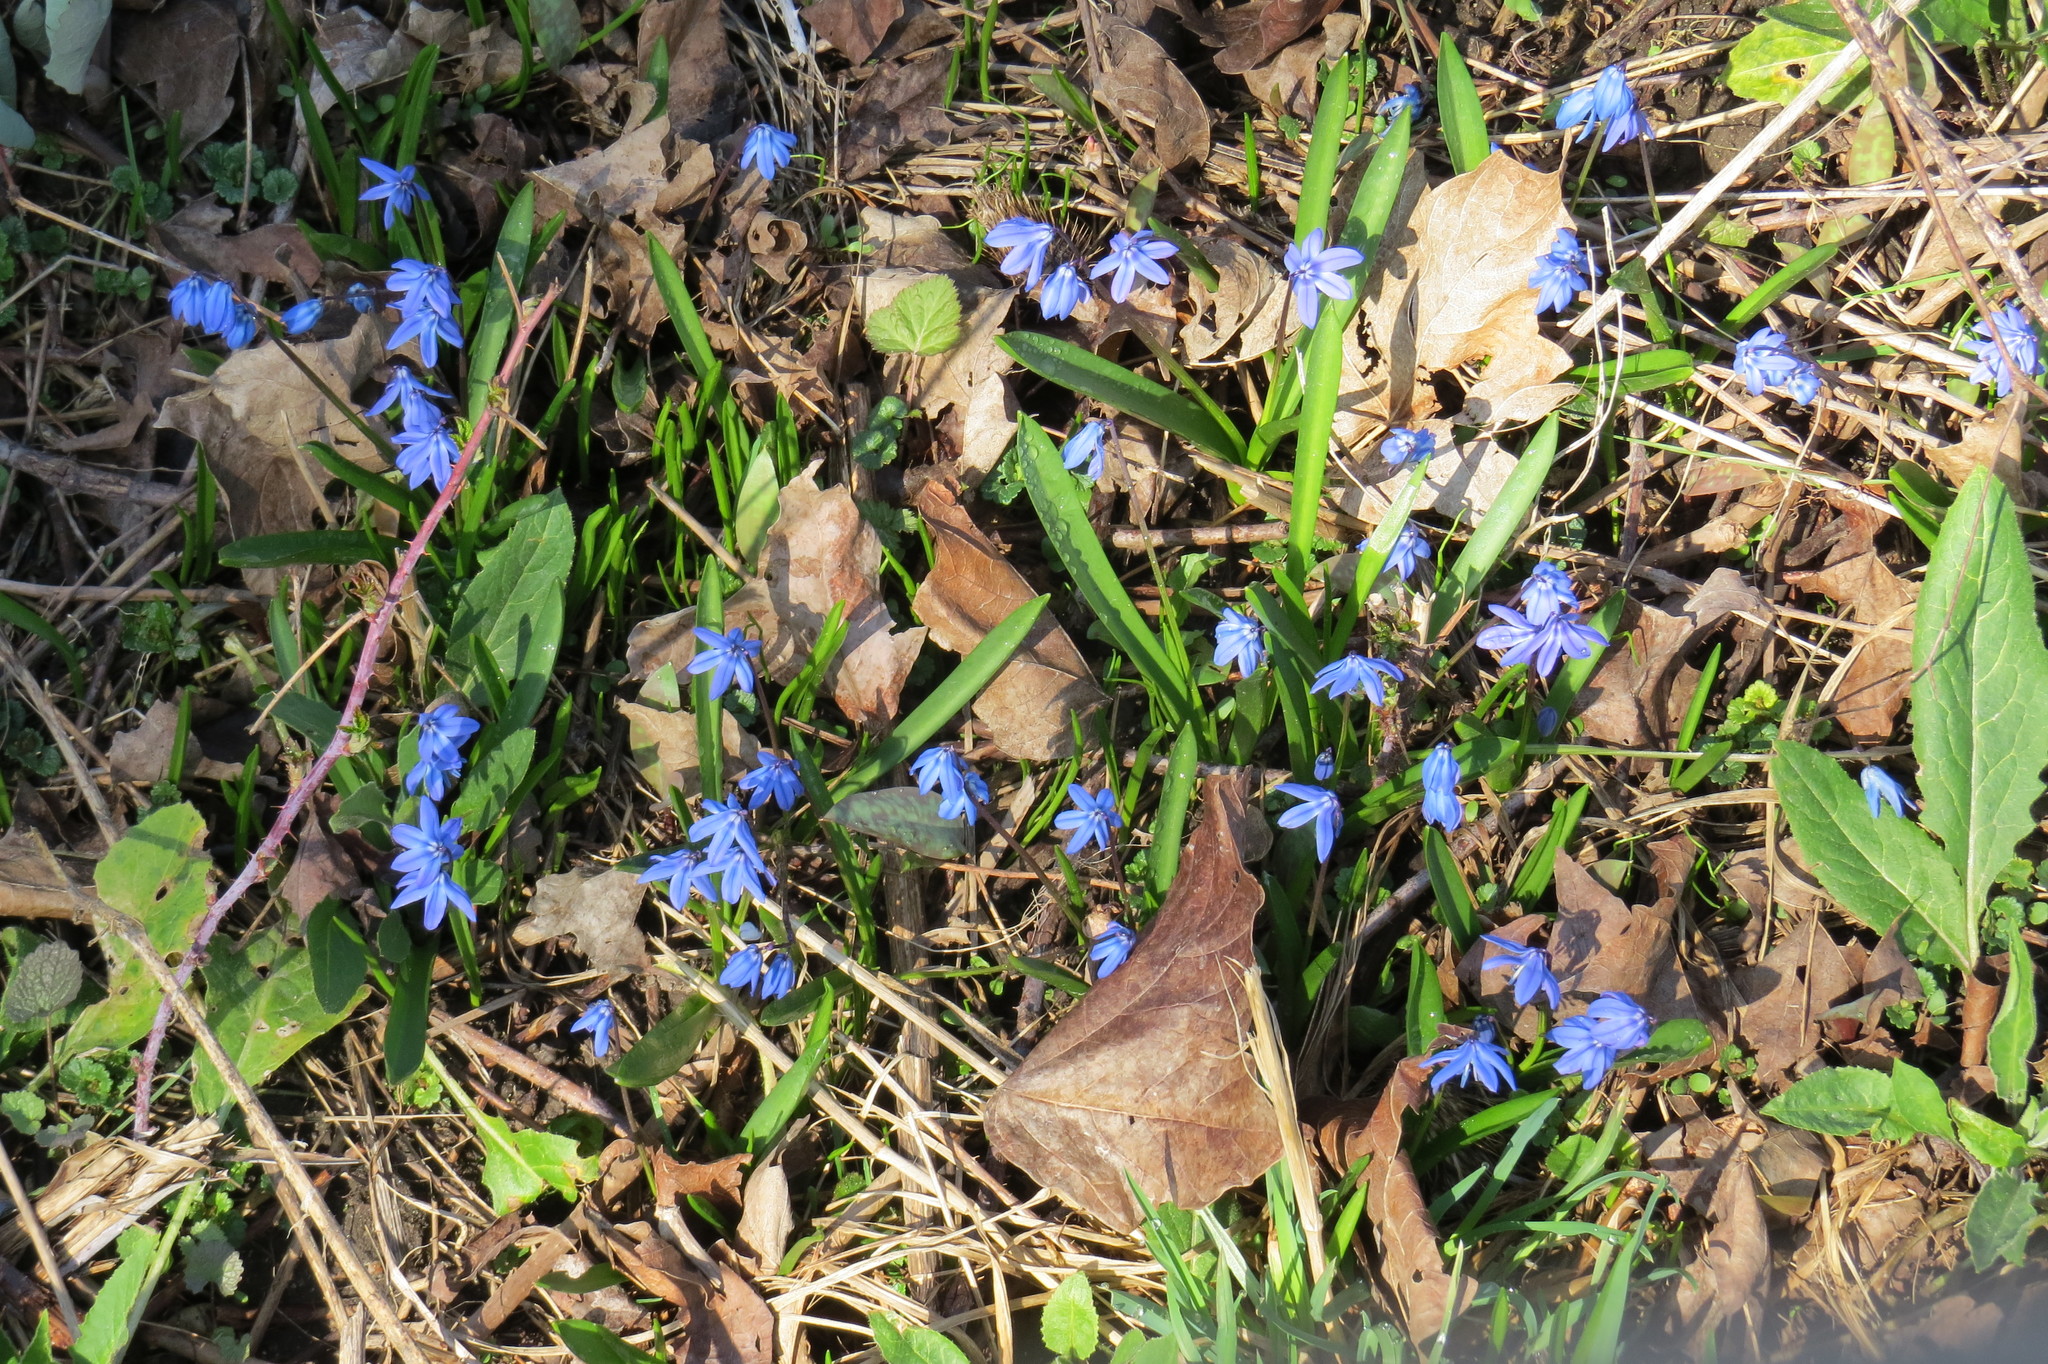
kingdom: Plantae
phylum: Tracheophyta
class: Liliopsida
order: Asparagales
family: Asparagaceae
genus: Scilla
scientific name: Scilla siberica
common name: Siberian squill
